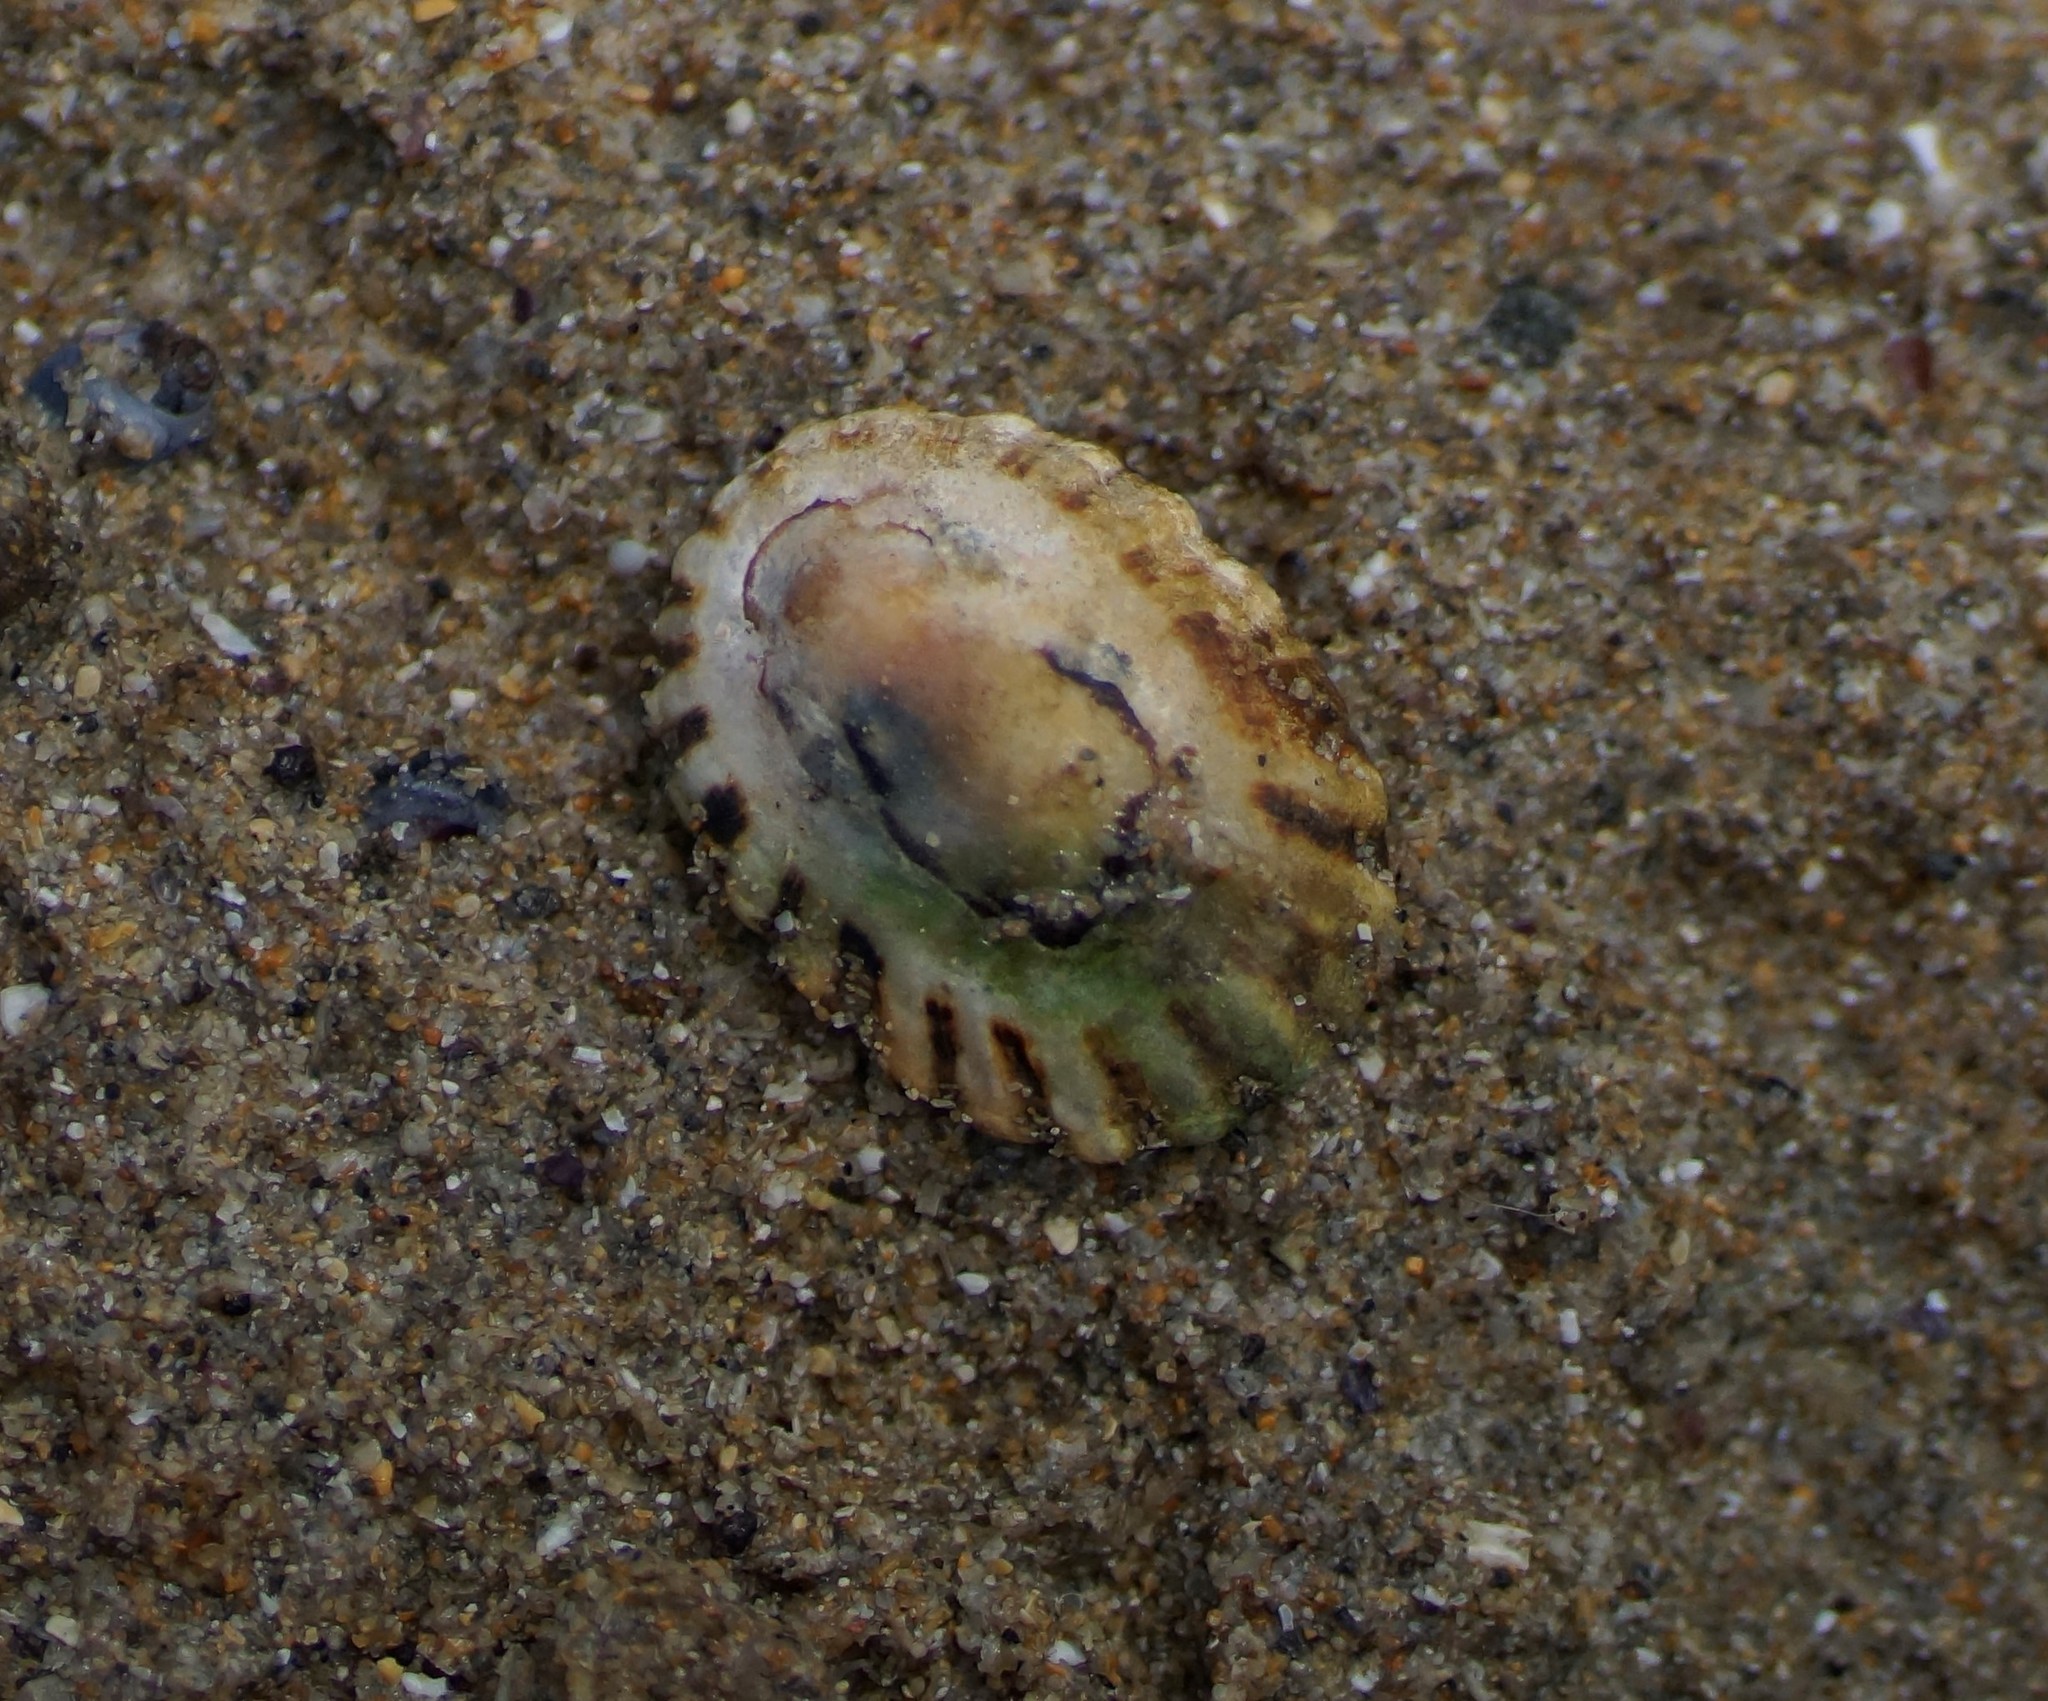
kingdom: Animalia
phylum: Mollusca
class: Gastropoda
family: Nacellidae
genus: Cellana
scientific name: Cellana tramoserica
